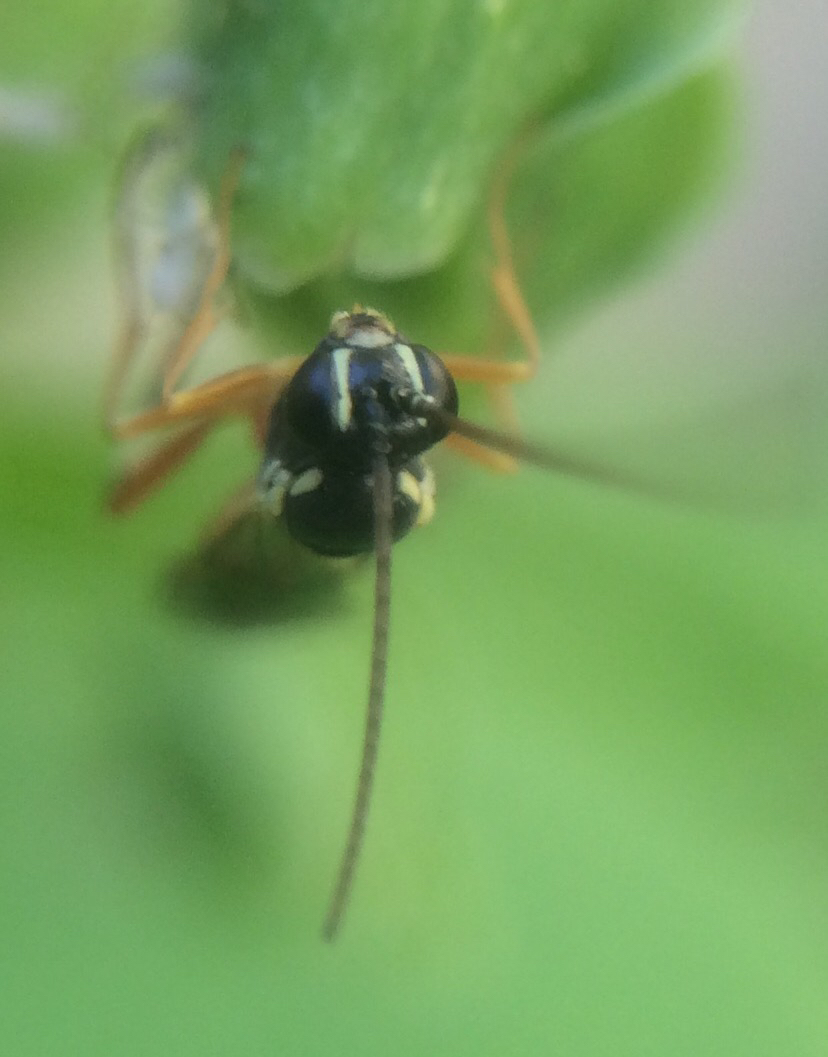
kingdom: Animalia
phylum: Arthropoda
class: Insecta
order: Hymenoptera
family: Ichneumonidae
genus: Diplazon
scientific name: Diplazon laetatorius
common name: Parasitoid wasp
